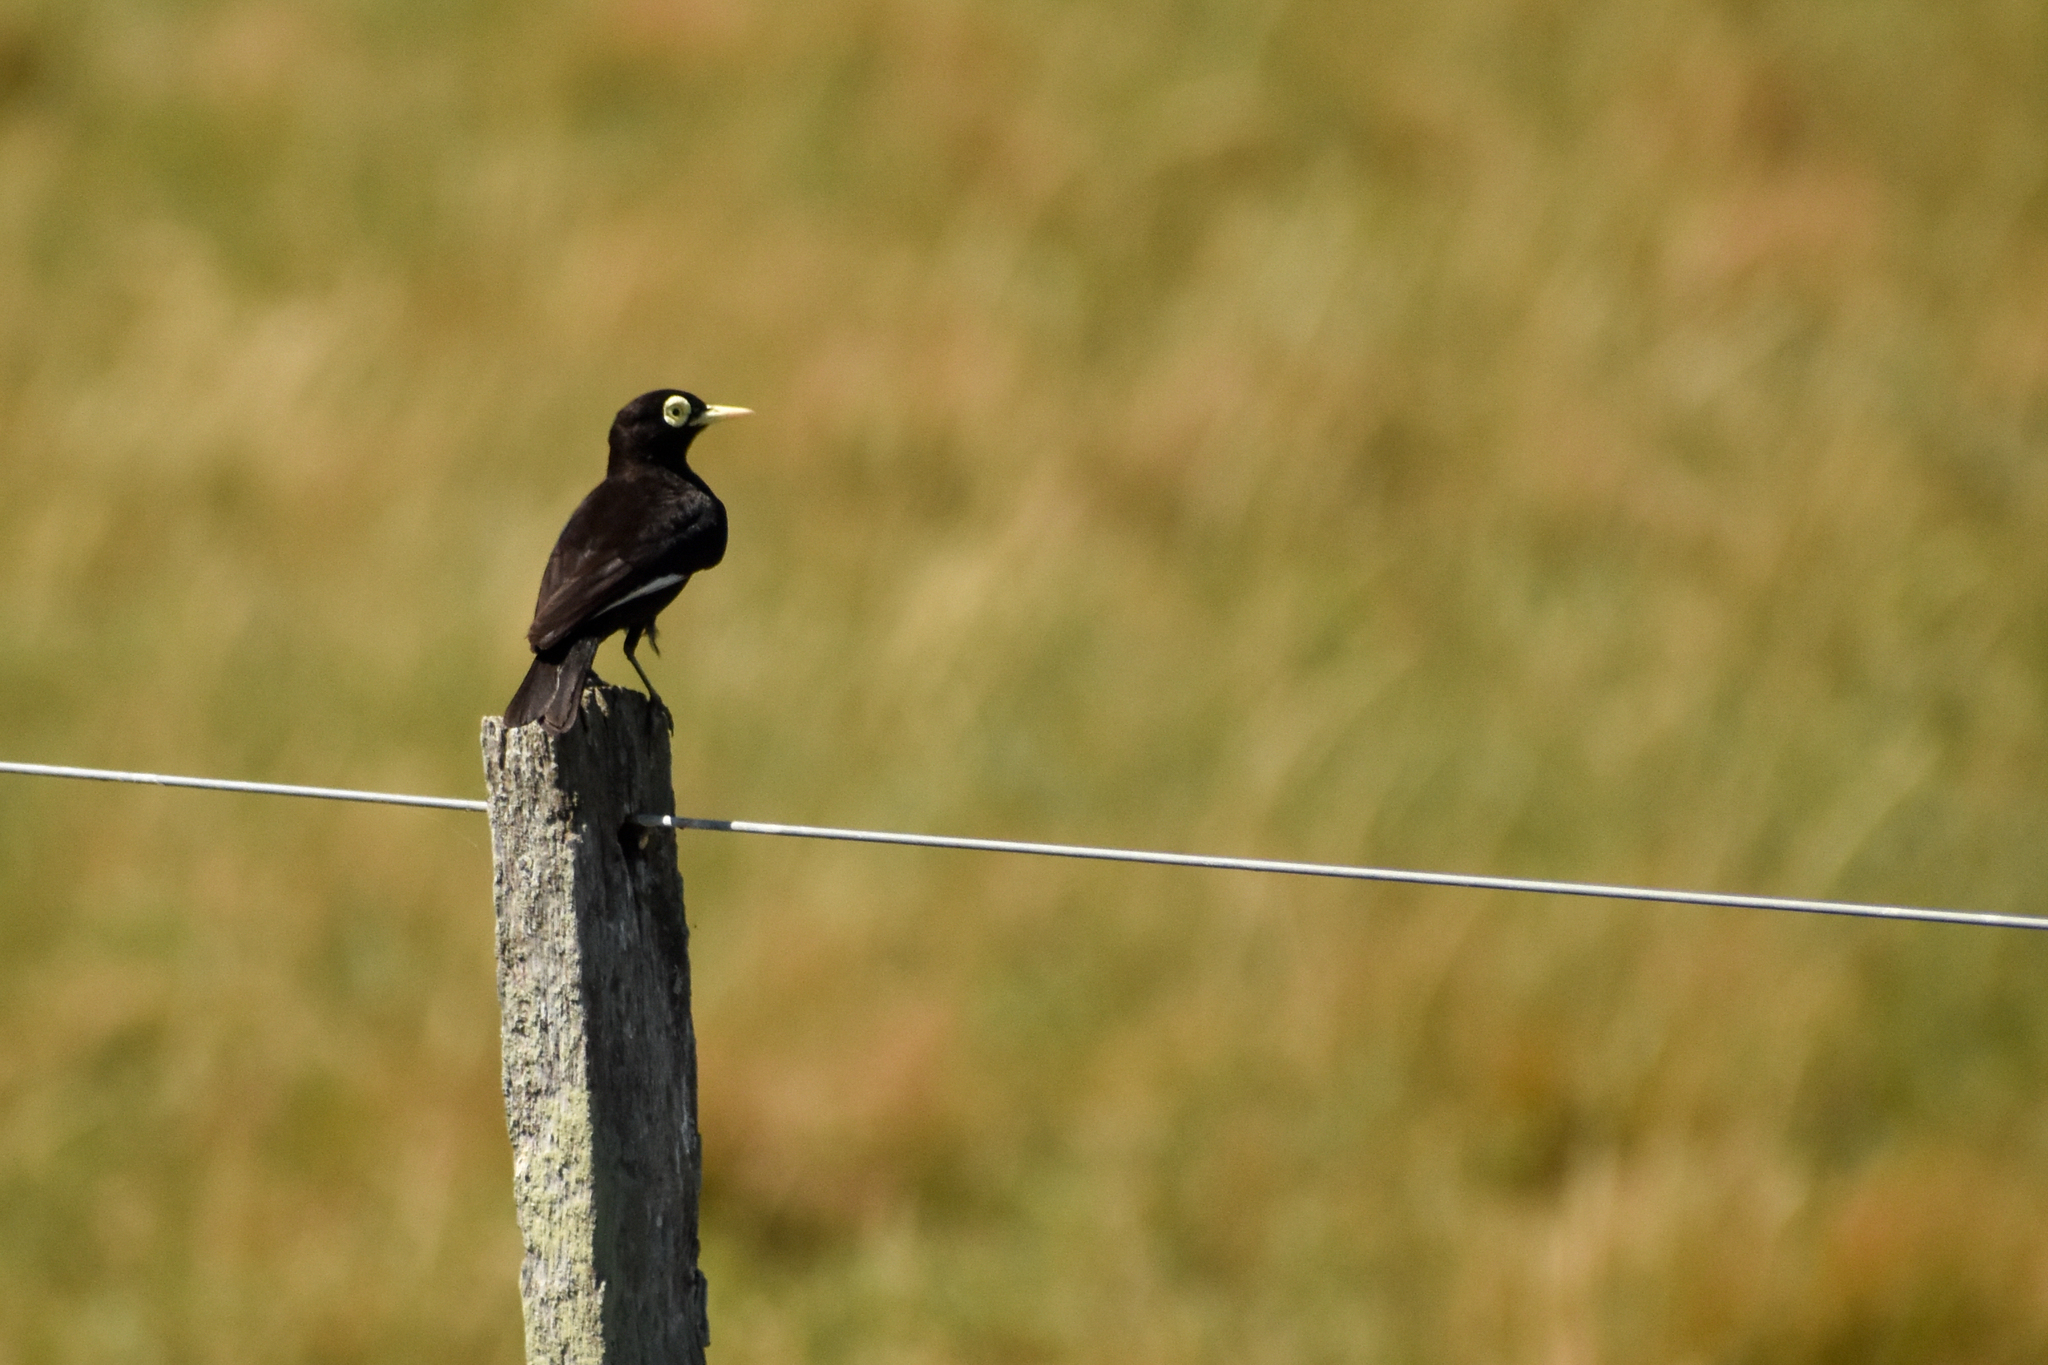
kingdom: Animalia
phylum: Chordata
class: Aves
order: Passeriformes
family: Tyrannidae
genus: Hymenops
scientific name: Hymenops perspicillatus
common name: Spectacled tyrant
